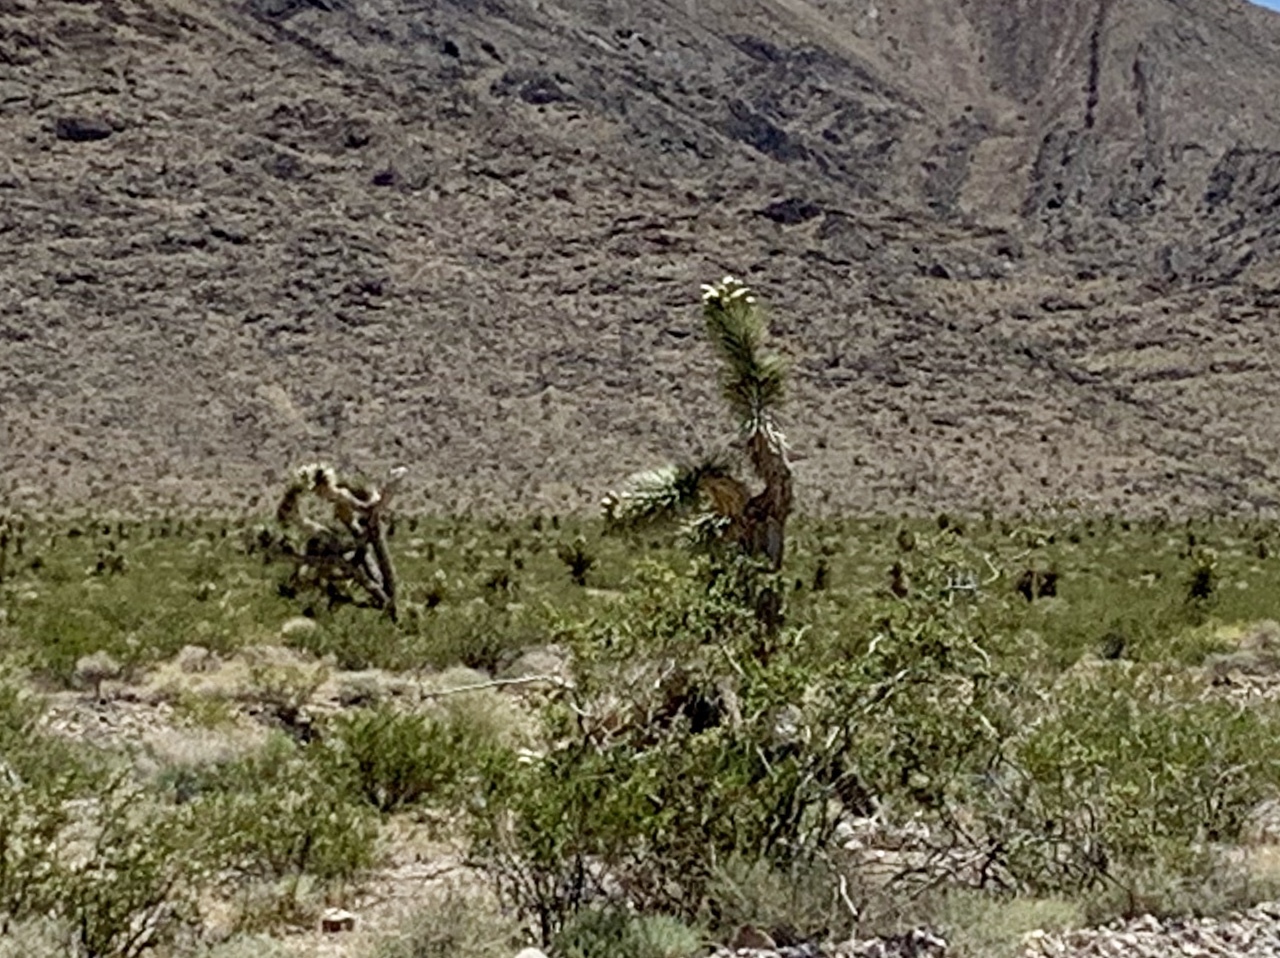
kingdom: Plantae
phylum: Tracheophyta
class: Liliopsida
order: Asparagales
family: Asparagaceae
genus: Yucca
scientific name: Yucca brevifolia
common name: Joshua tree
